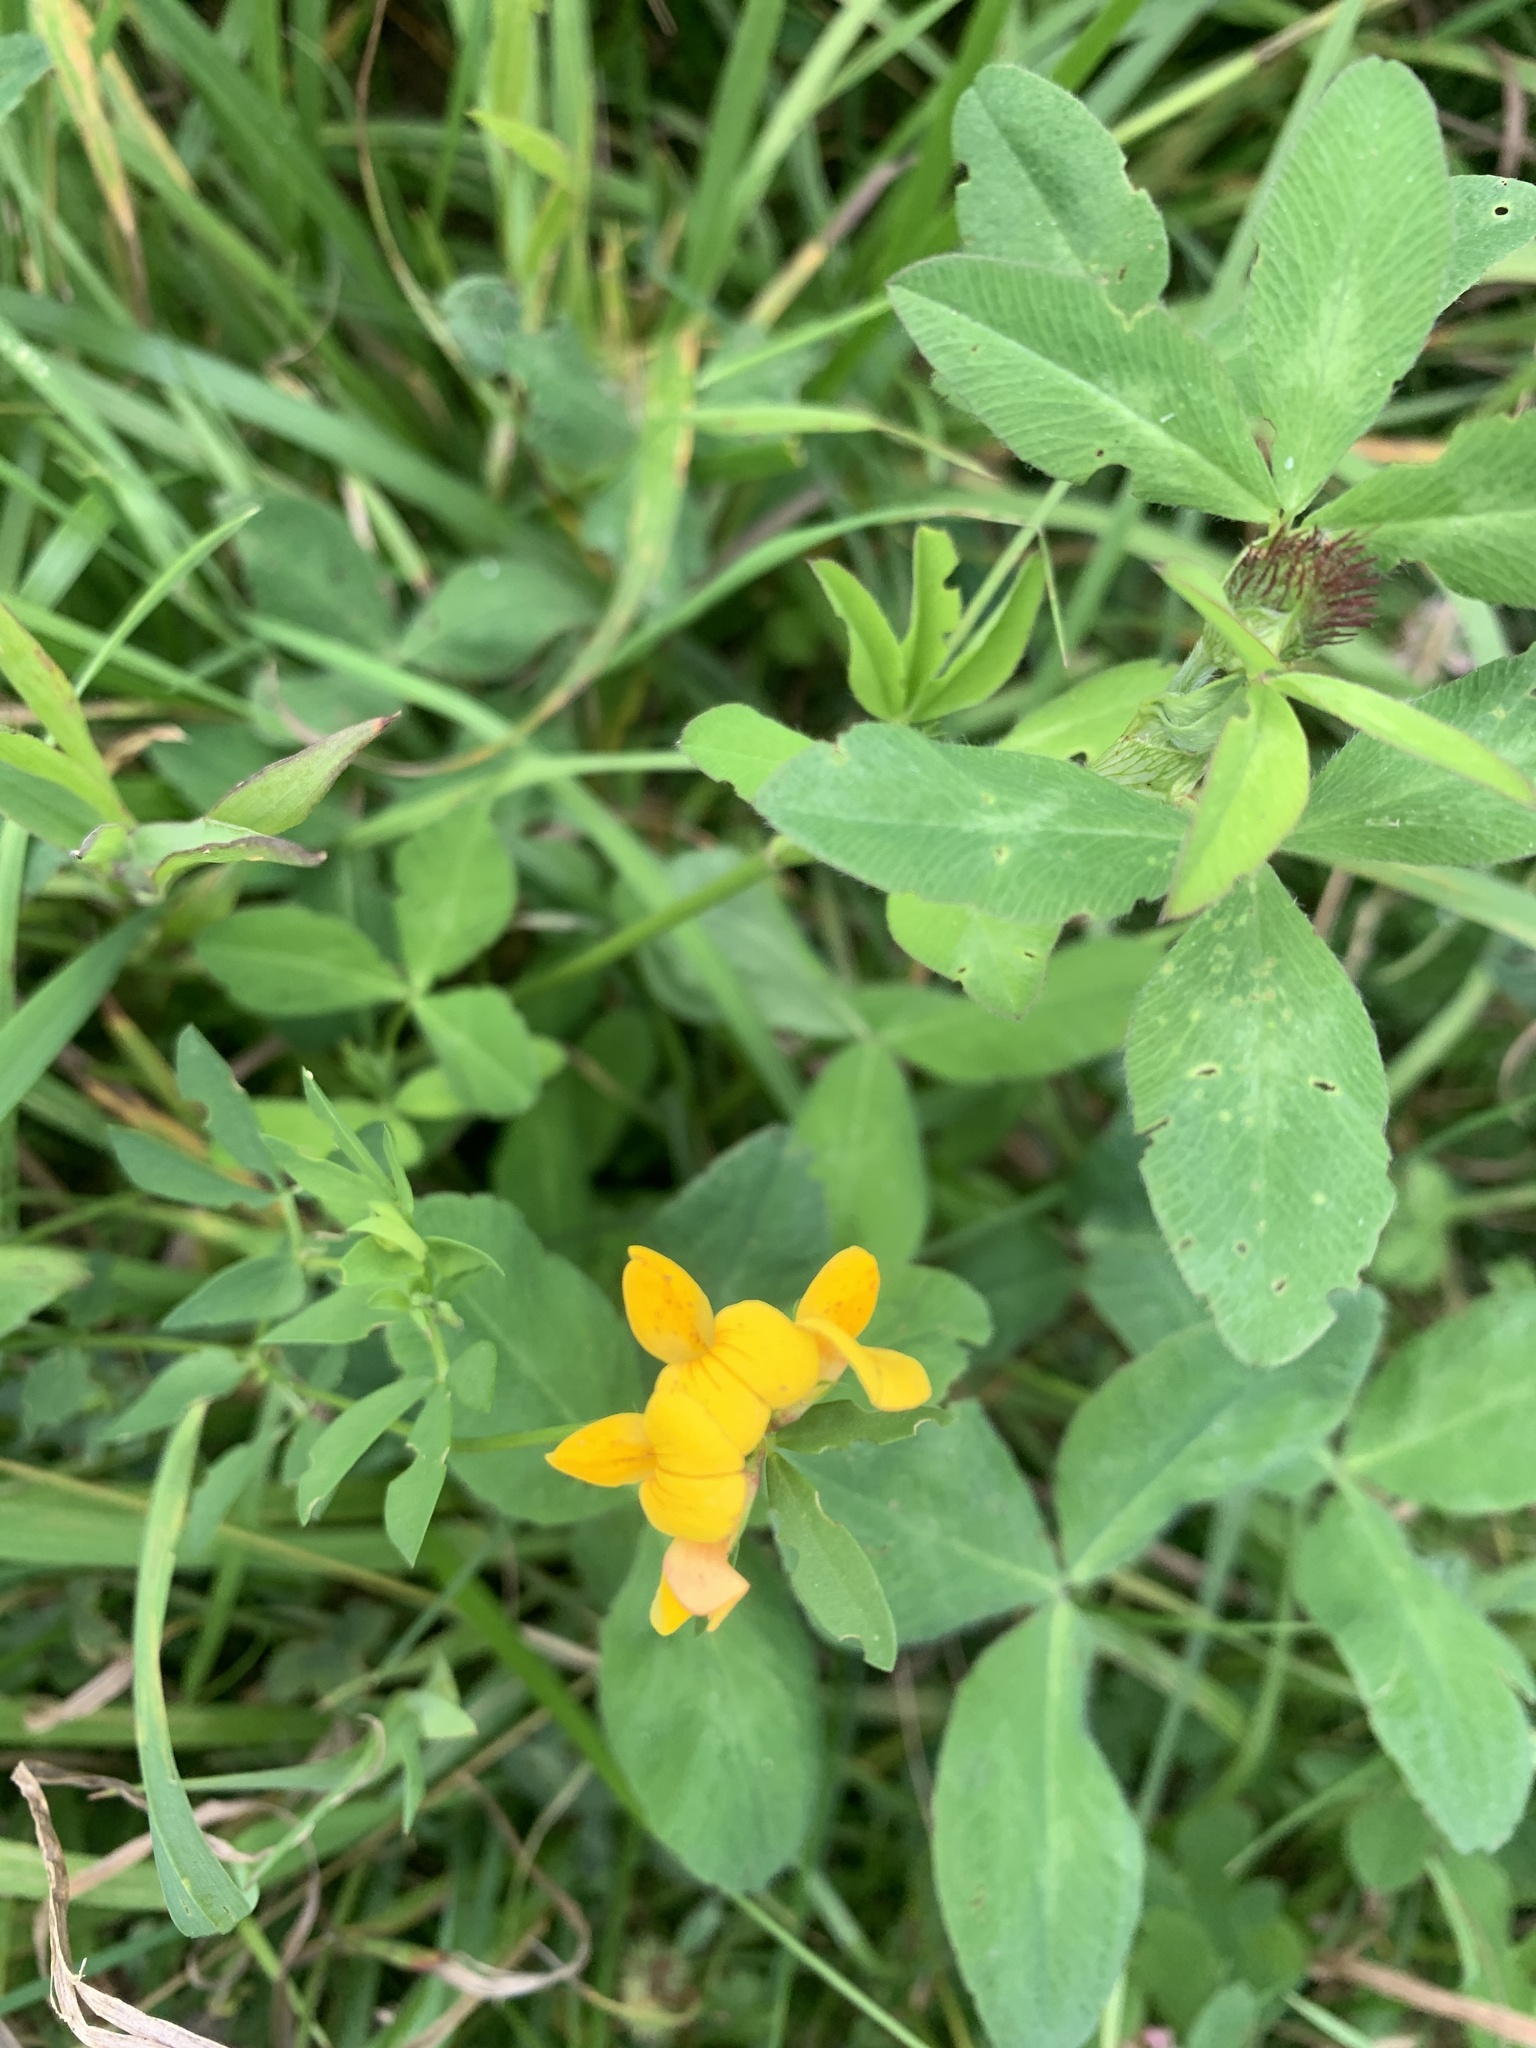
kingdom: Plantae
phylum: Tracheophyta
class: Magnoliopsida
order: Fabales
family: Fabaceae
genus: Lotus
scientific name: Lotus corniculatus
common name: Common bird's-foot-trefoil
